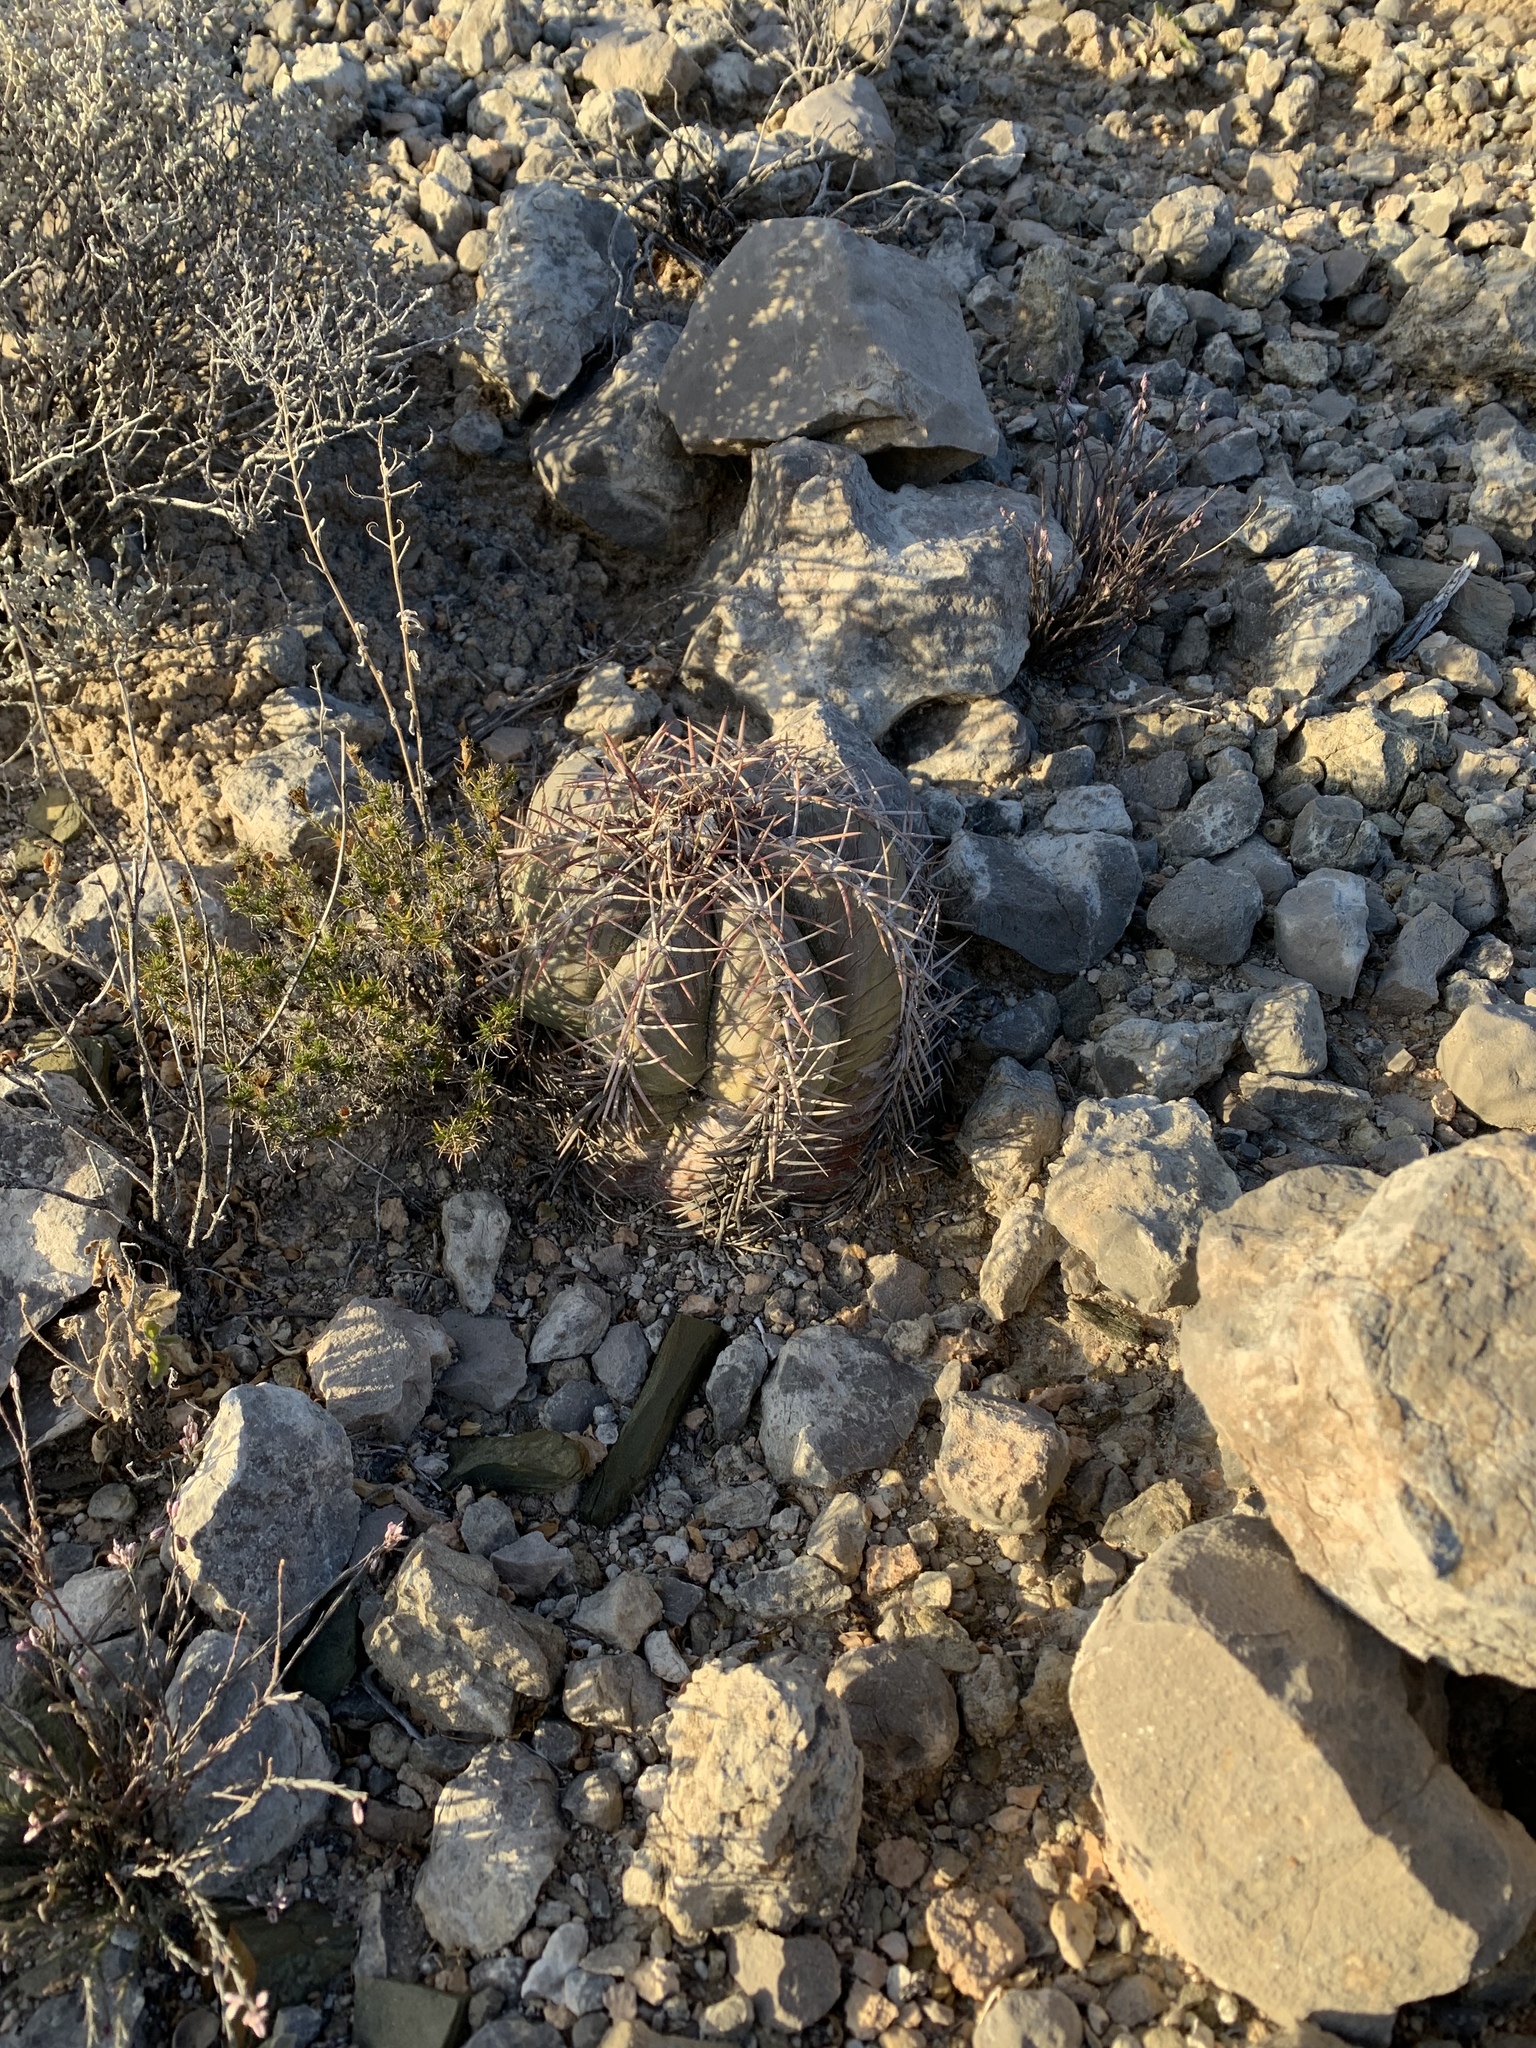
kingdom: Plantae
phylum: Tracheophyta
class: Magnoliopsida
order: Caryophyllales
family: Cactaceae
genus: Echinocactus
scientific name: Echinocactus horizonthalonius
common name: Devilshead
